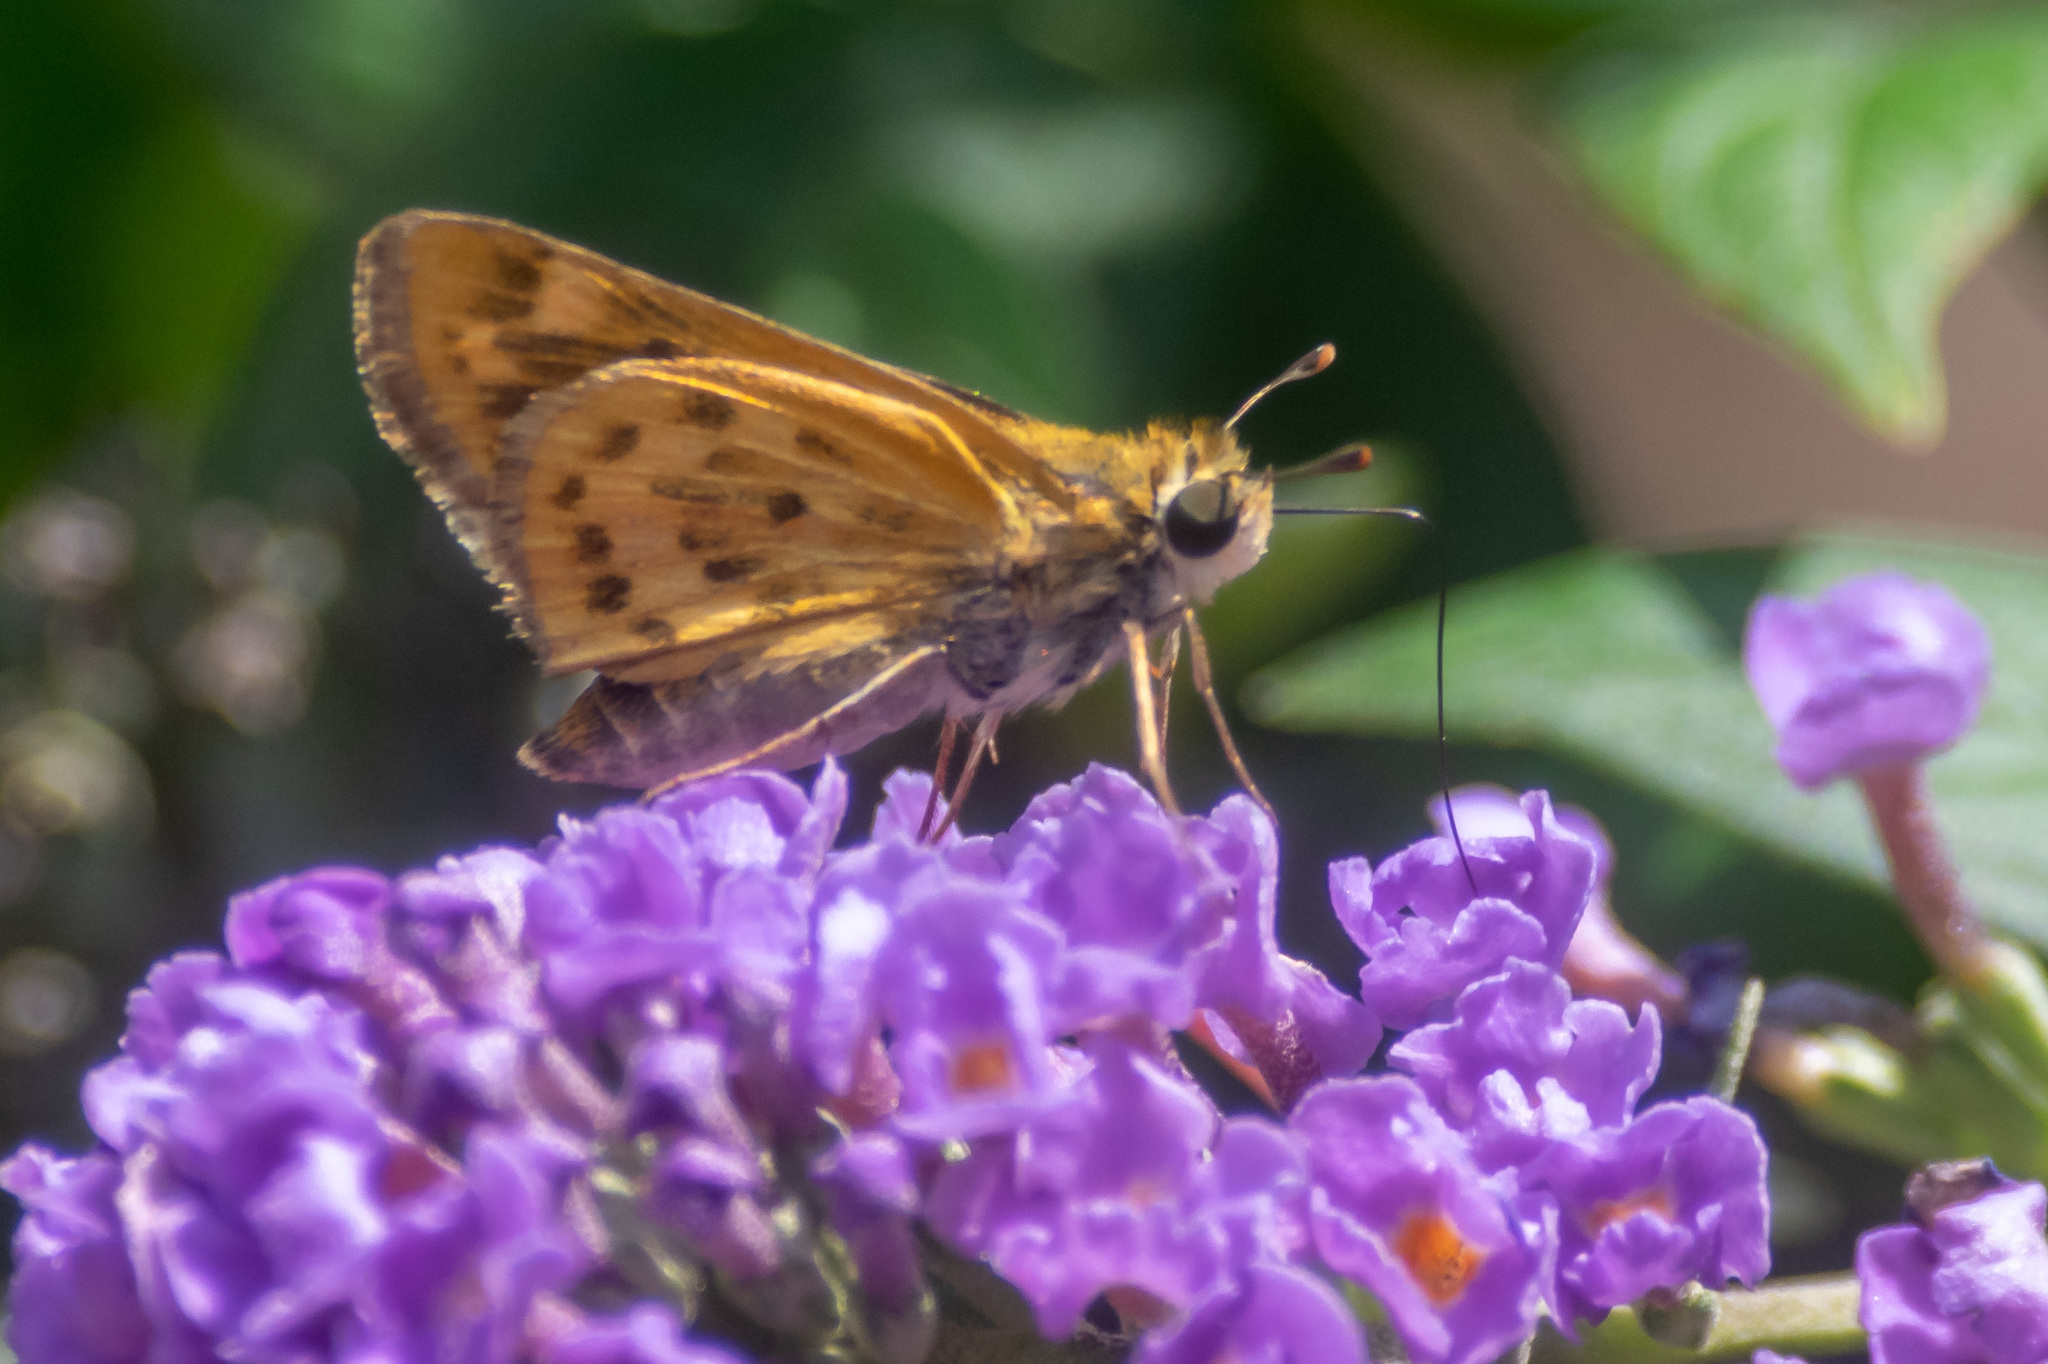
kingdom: Animalia
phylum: Arthropoda
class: Insecta
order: Lepidoptera
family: Hesperiidae
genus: Hylephila
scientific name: Hylephila phyleus
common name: Fiery skipper
